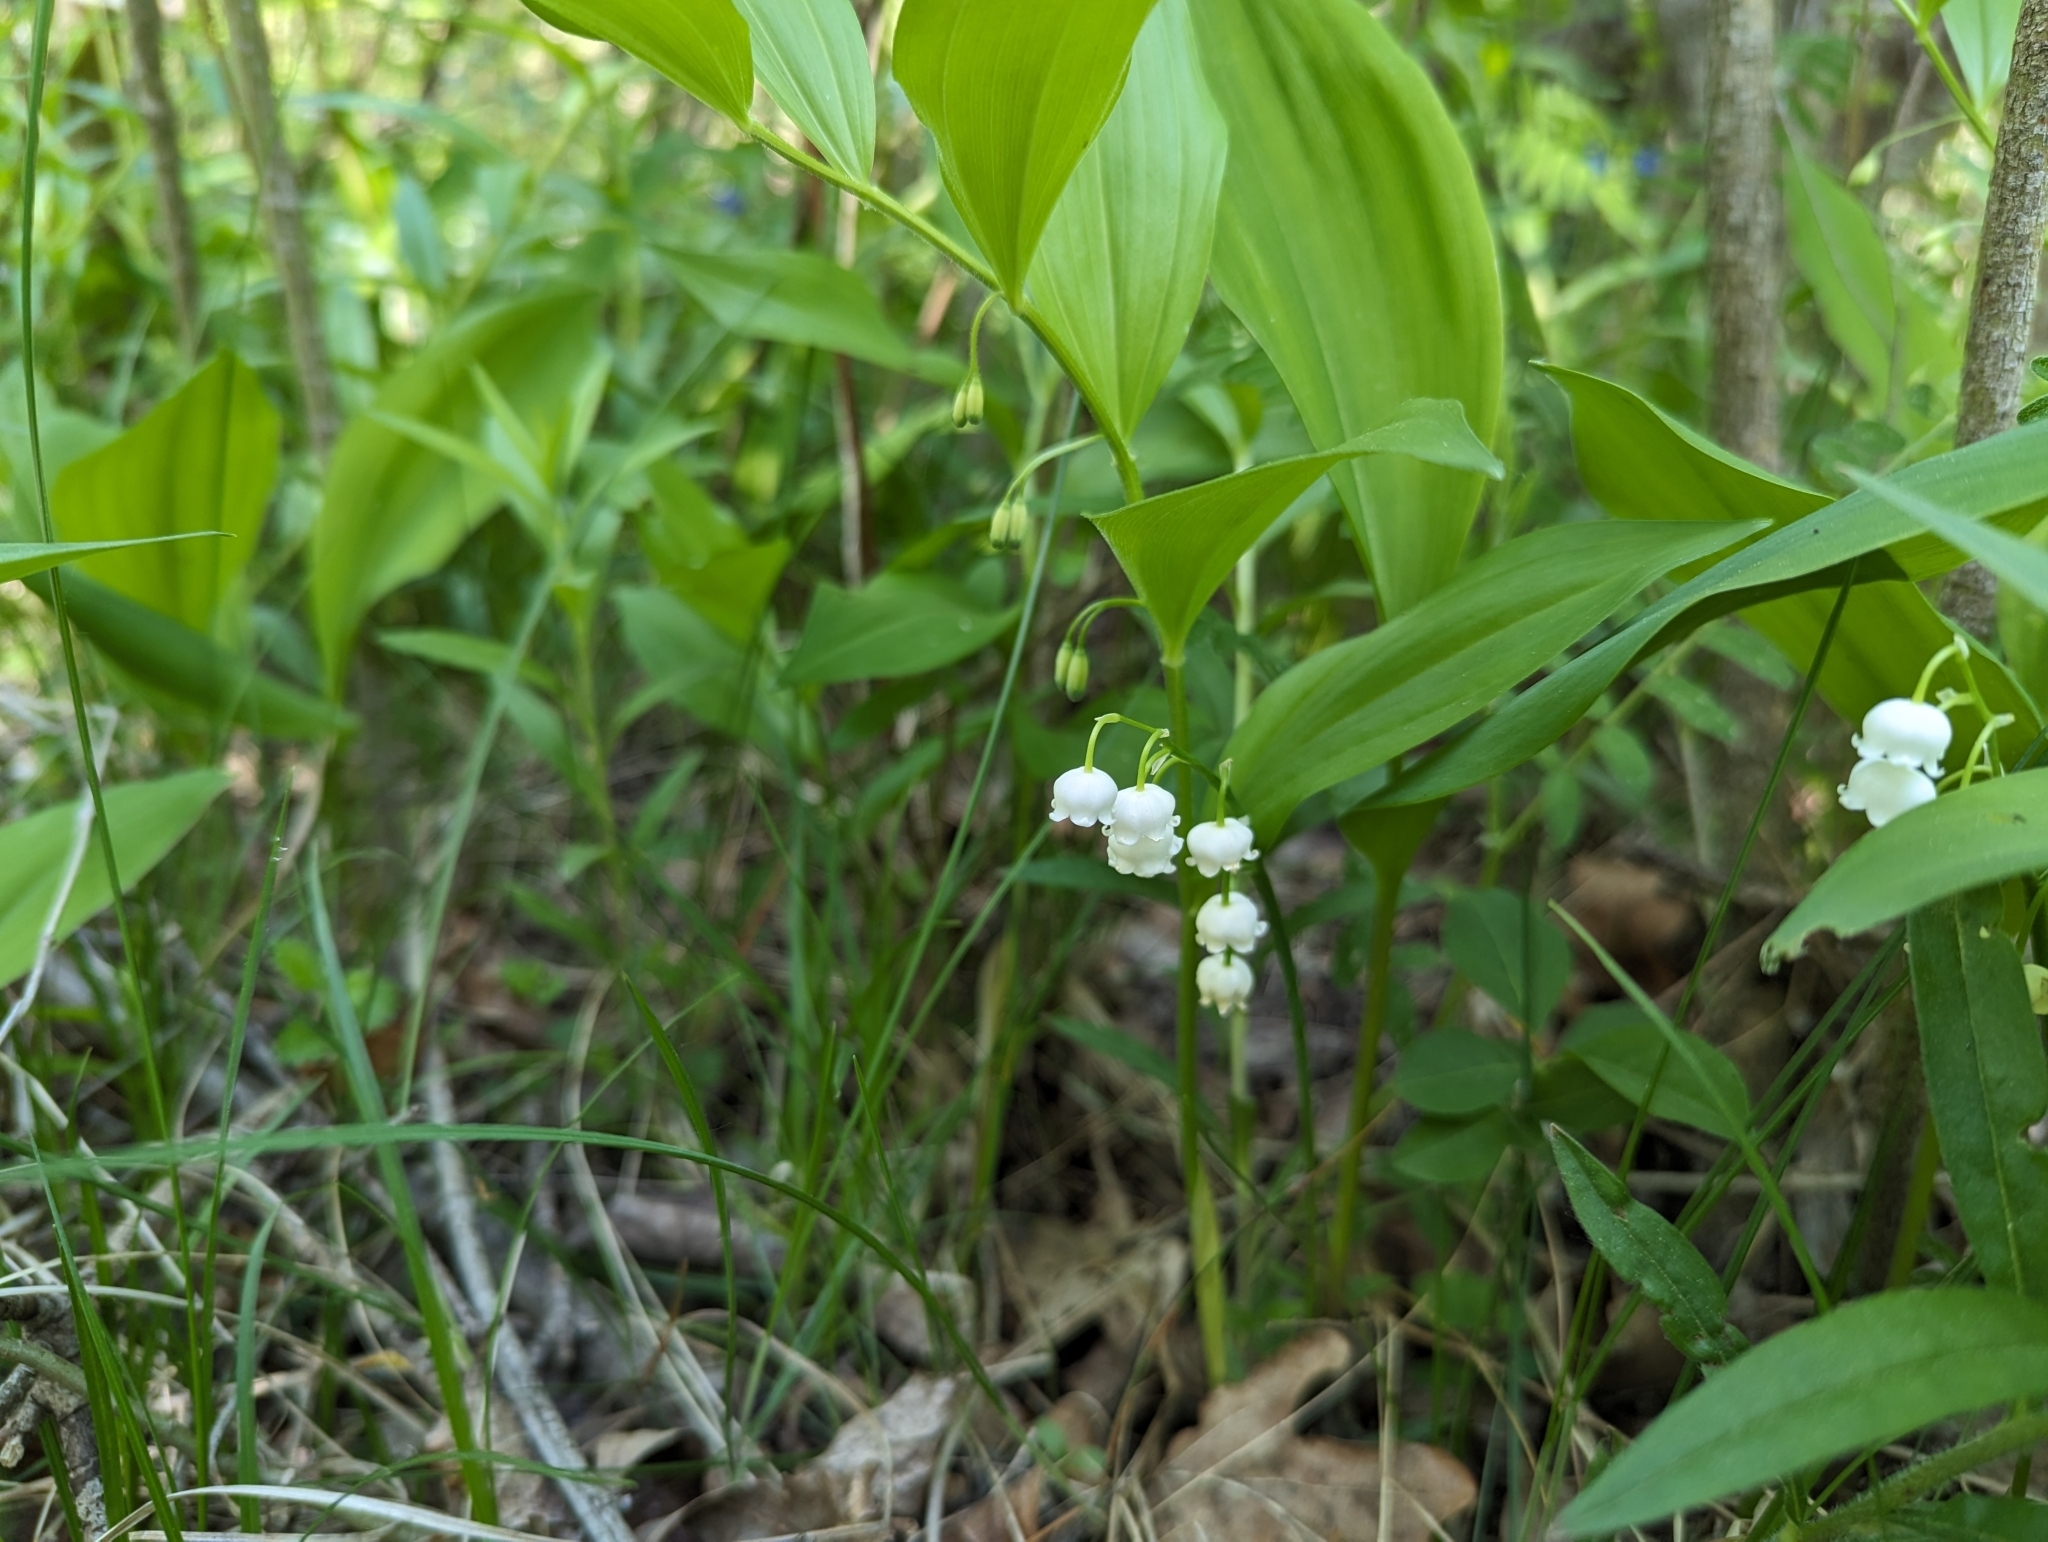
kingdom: Plantae
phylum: Tracheophyta
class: Liliopsida
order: Asparagales
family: Asparagaceae
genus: Convallaria
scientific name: Convallaria majalis
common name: Lily-of-the-valley
